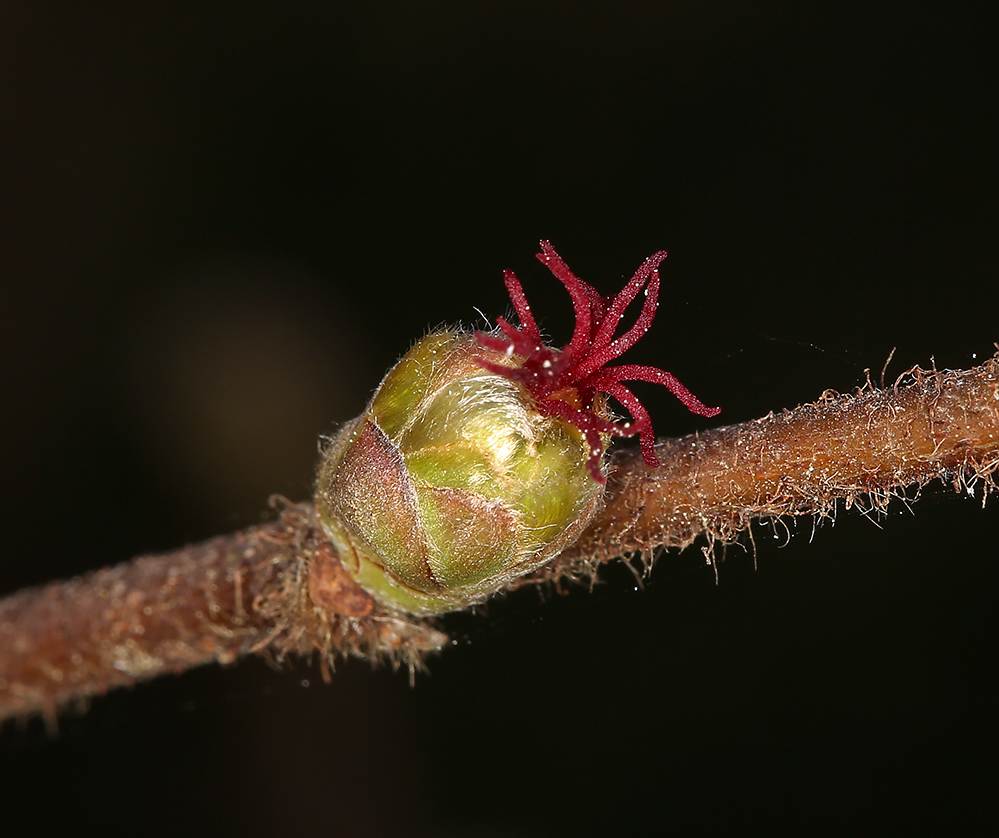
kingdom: Plantae
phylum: Tracheophyta
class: Magnoliopsida
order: Fagales
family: Betulaceae
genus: Corylus
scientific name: Corylus cornuta
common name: Beaked hazel
